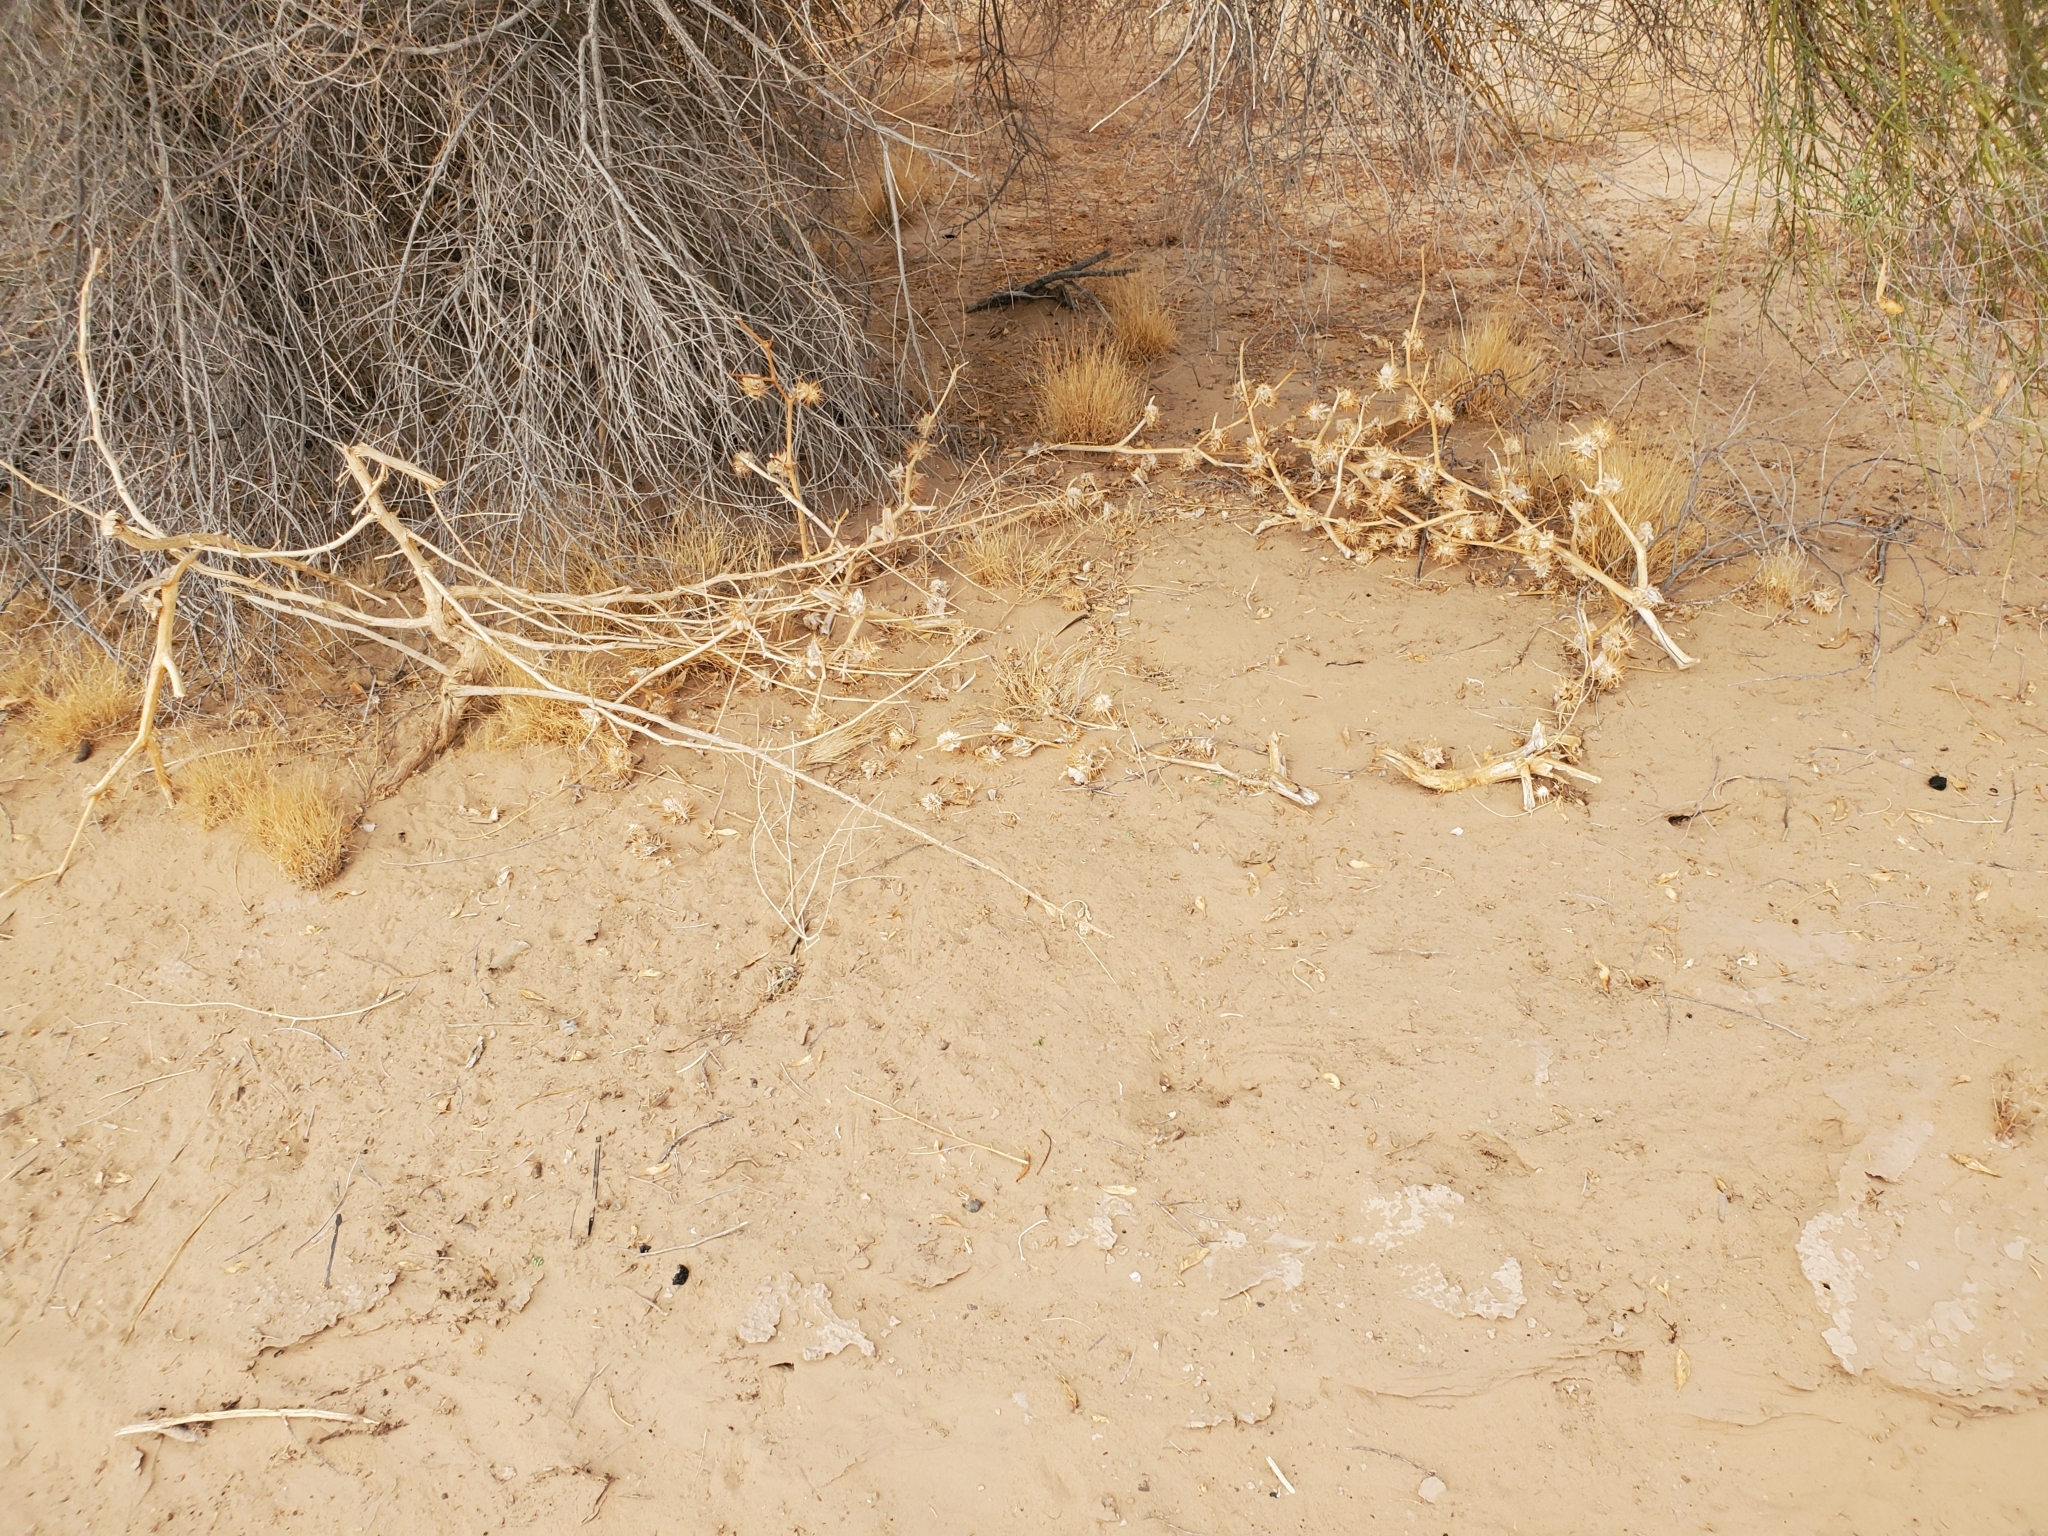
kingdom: Plantae
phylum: Tracheophyta
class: Magnoliopsida
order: Solanales
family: Solanaceae
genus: Datura
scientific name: Datura discolor
